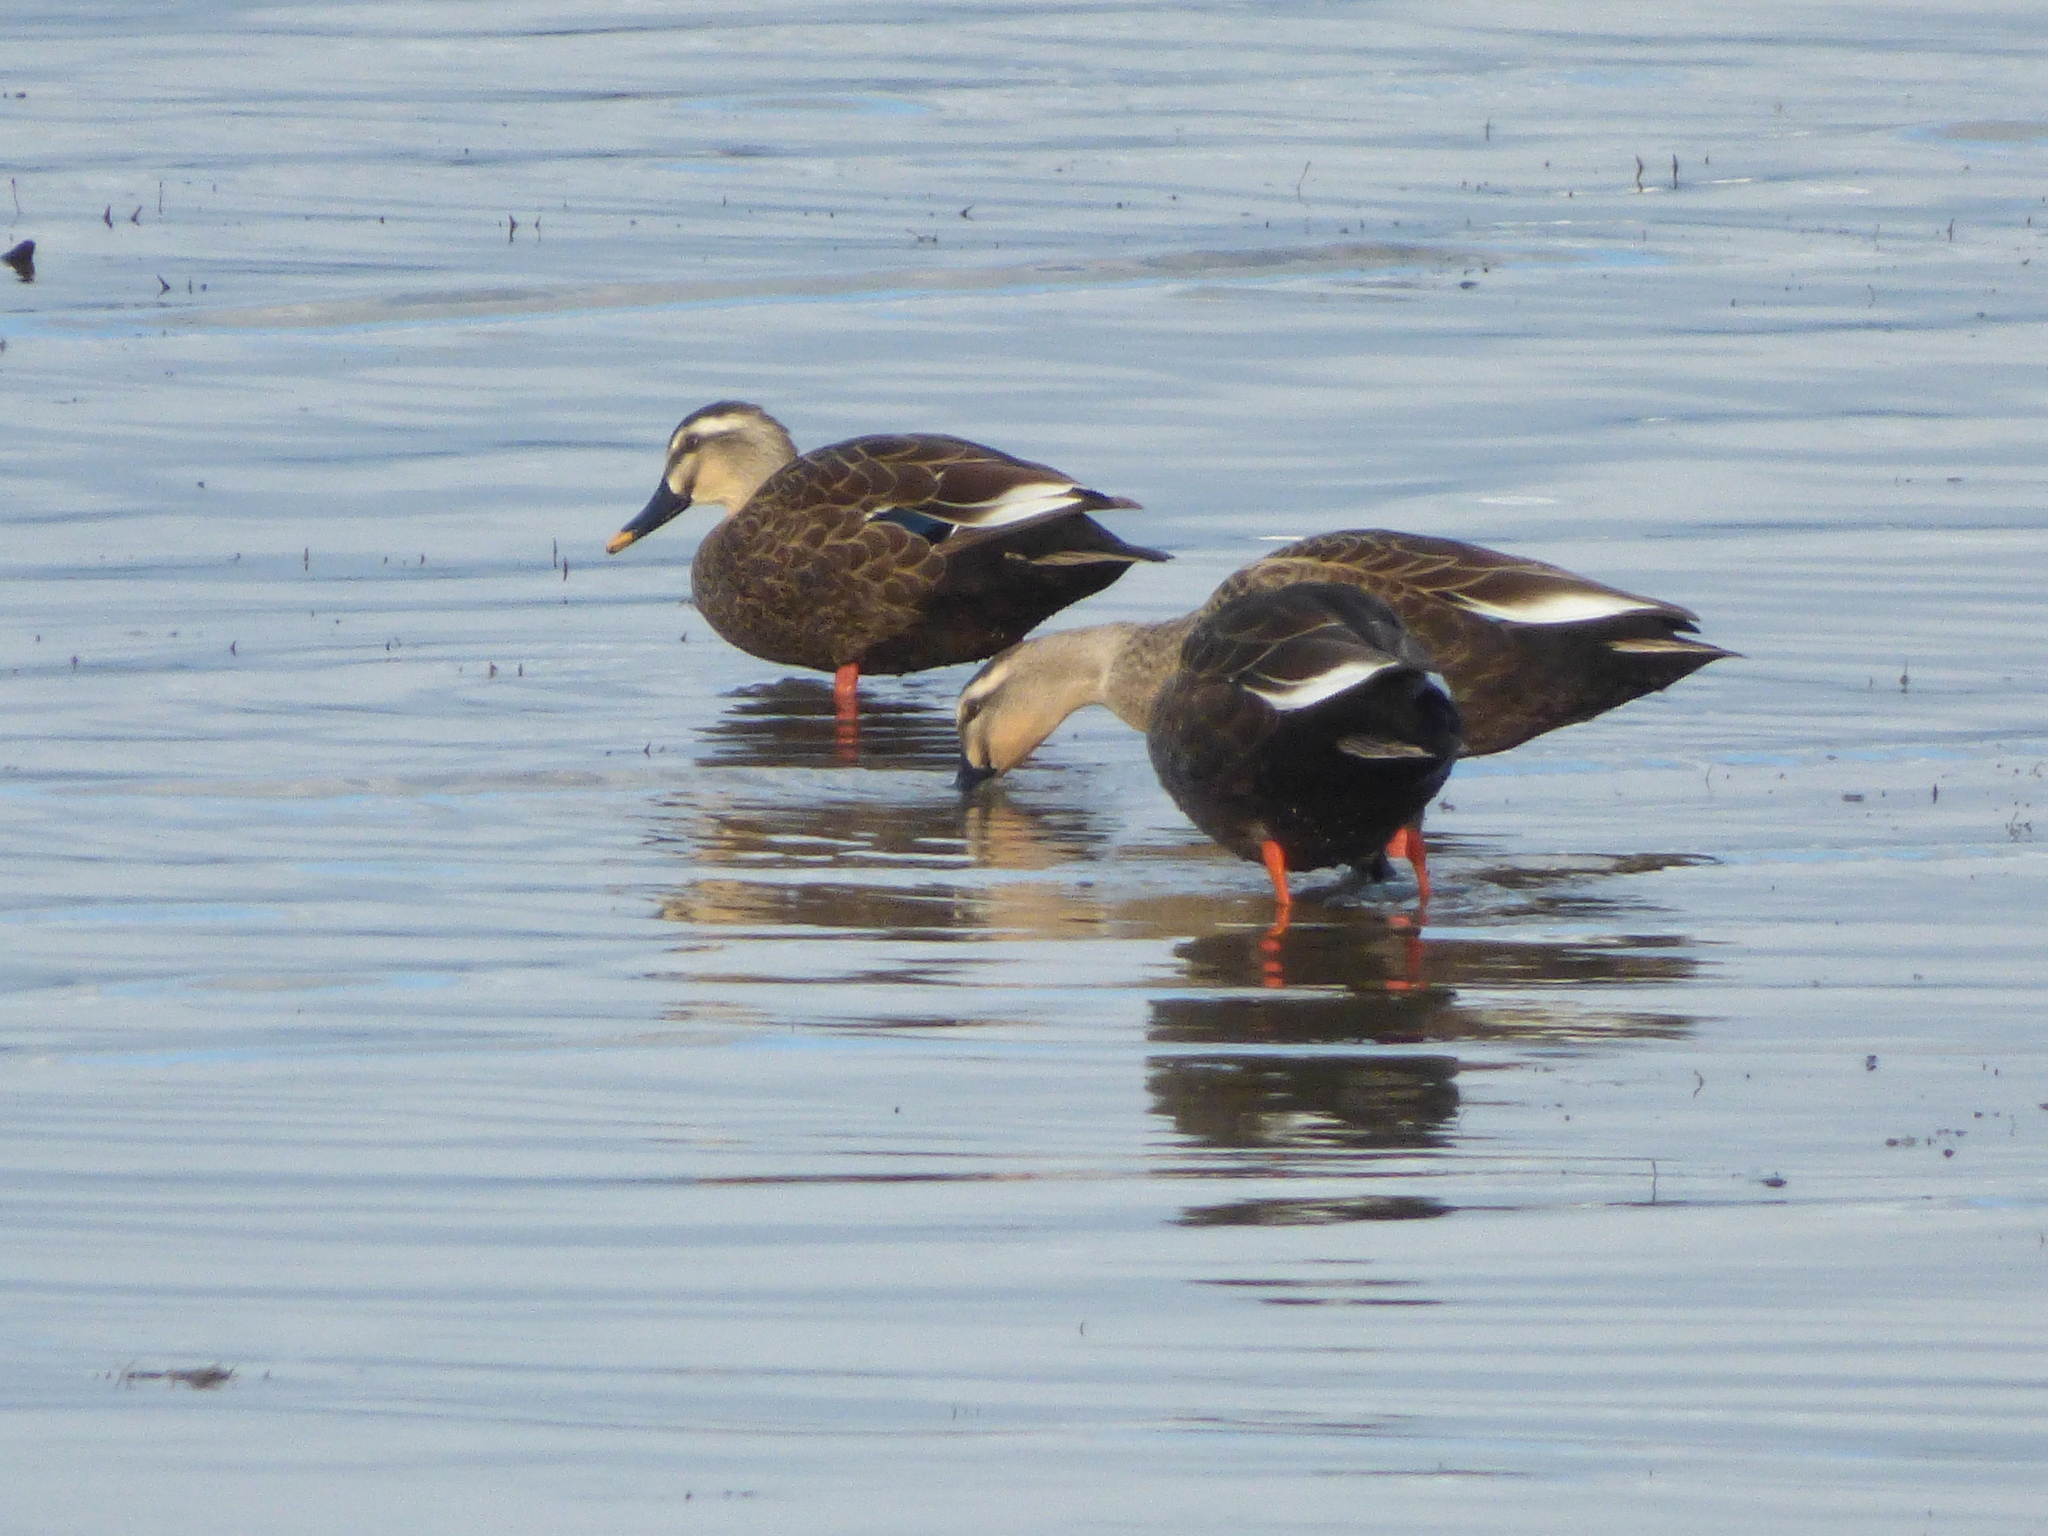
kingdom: Animalia
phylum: Chordata
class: Aves
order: Anseriformes
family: Anatidae
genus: Anas
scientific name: Anas zonorhyncha
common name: Eastern spot-billed duck
